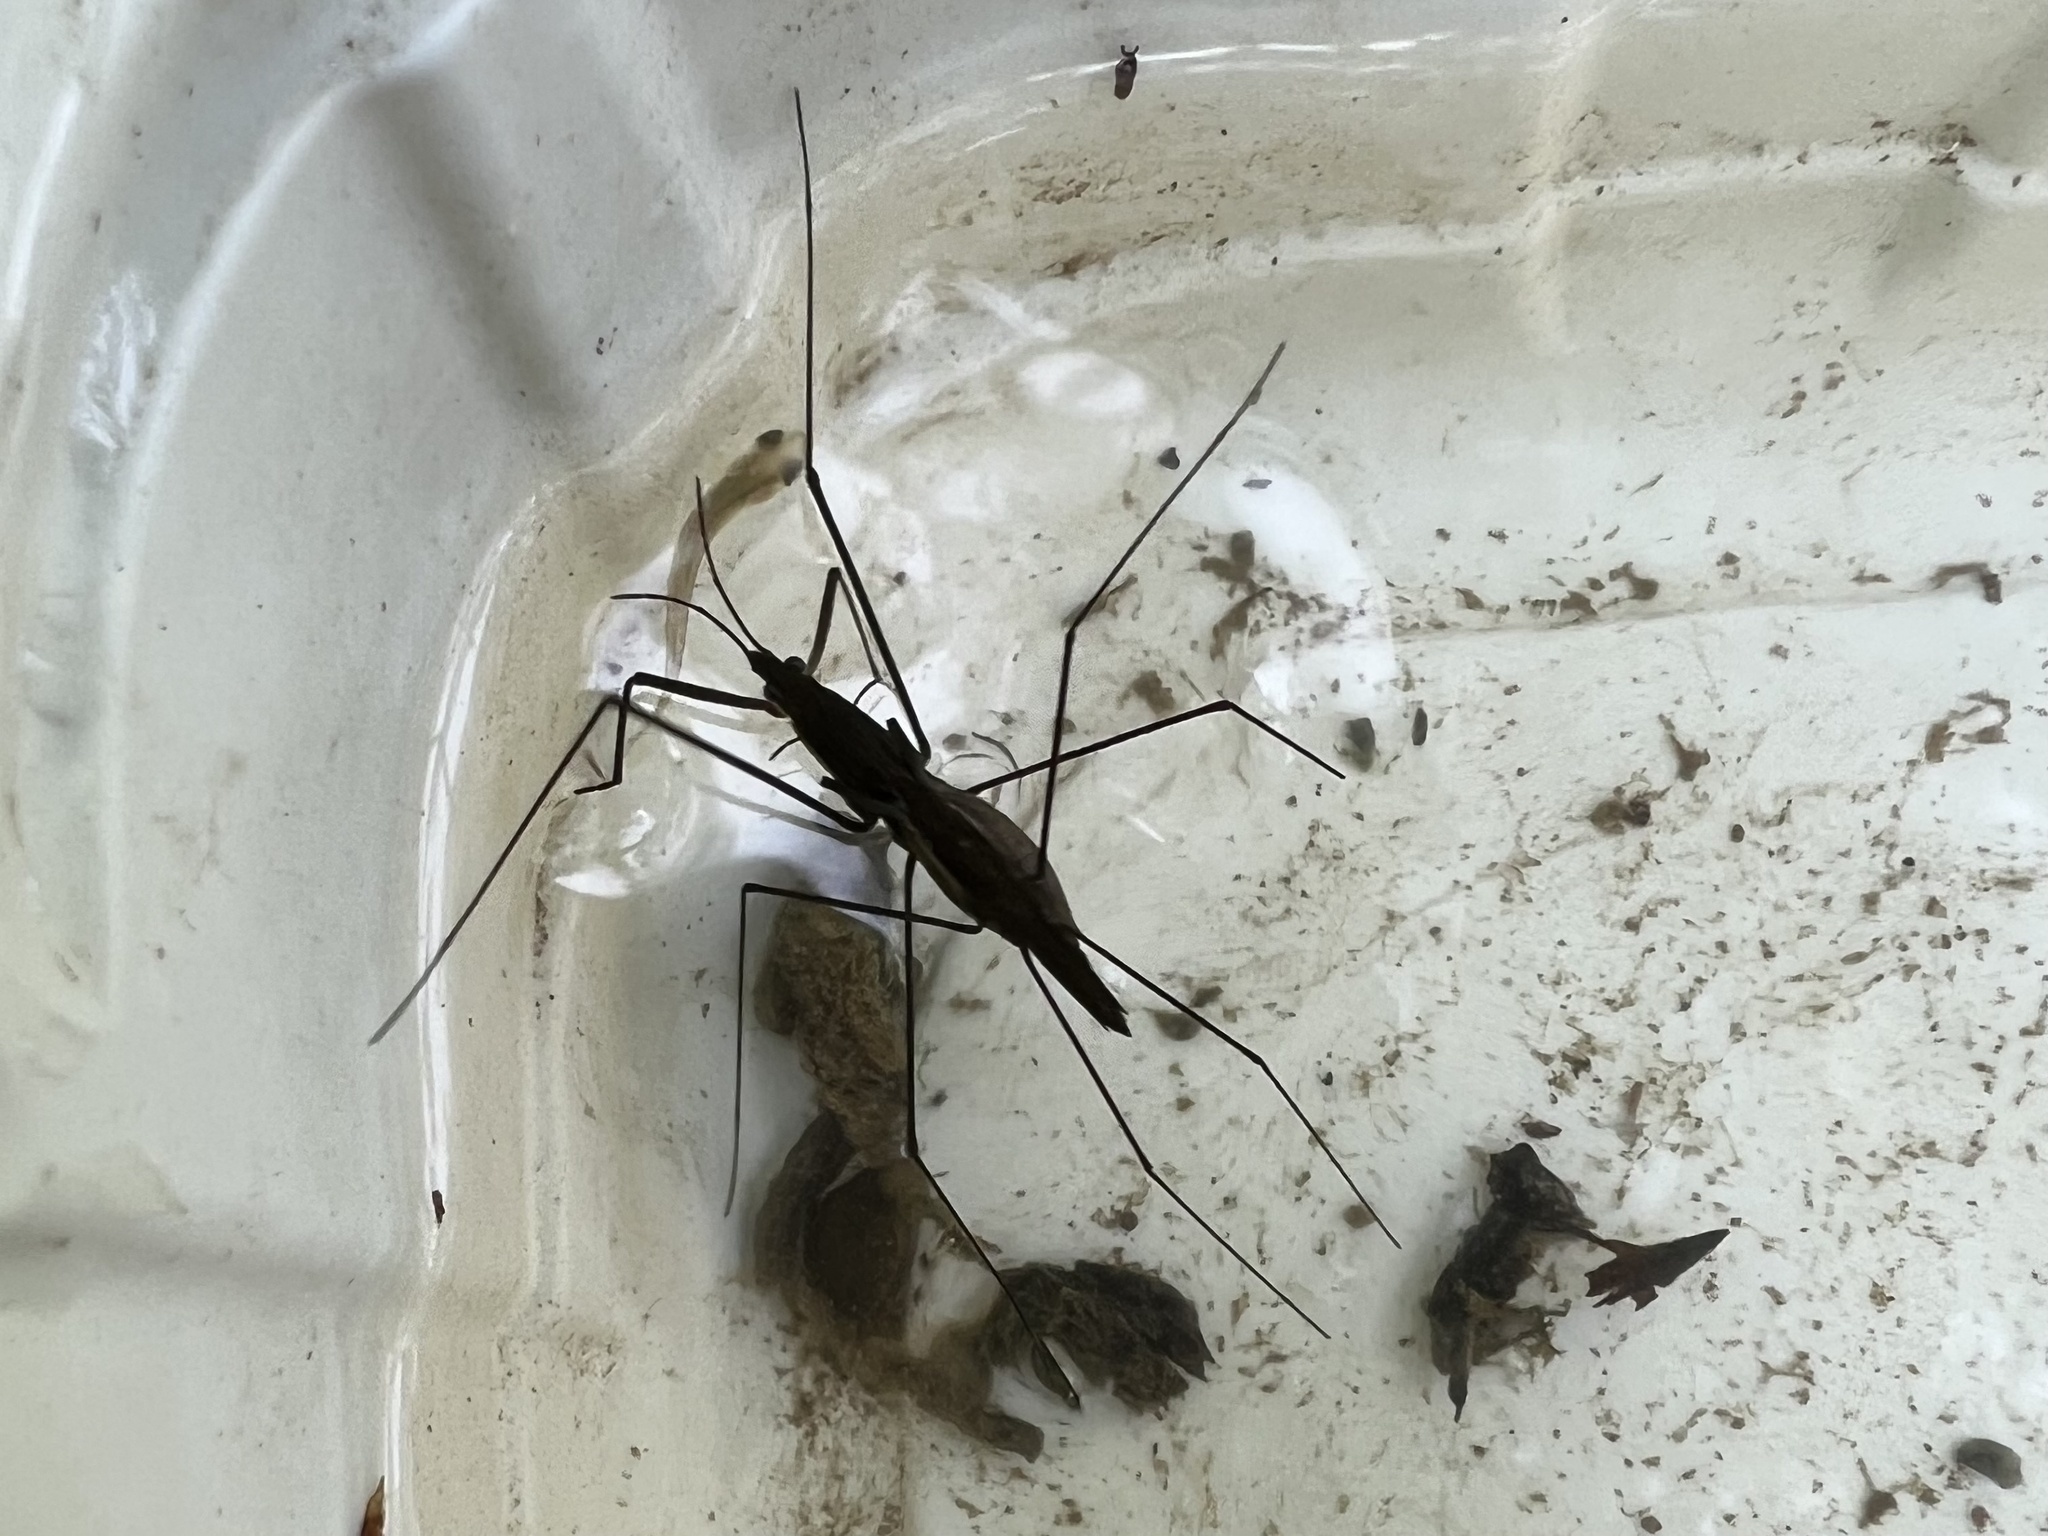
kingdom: Animalia
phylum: Arthropoda
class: Insecta
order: Hemiptera
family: Gerridae
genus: Aquarius
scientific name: Aquarius najas
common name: River skater
